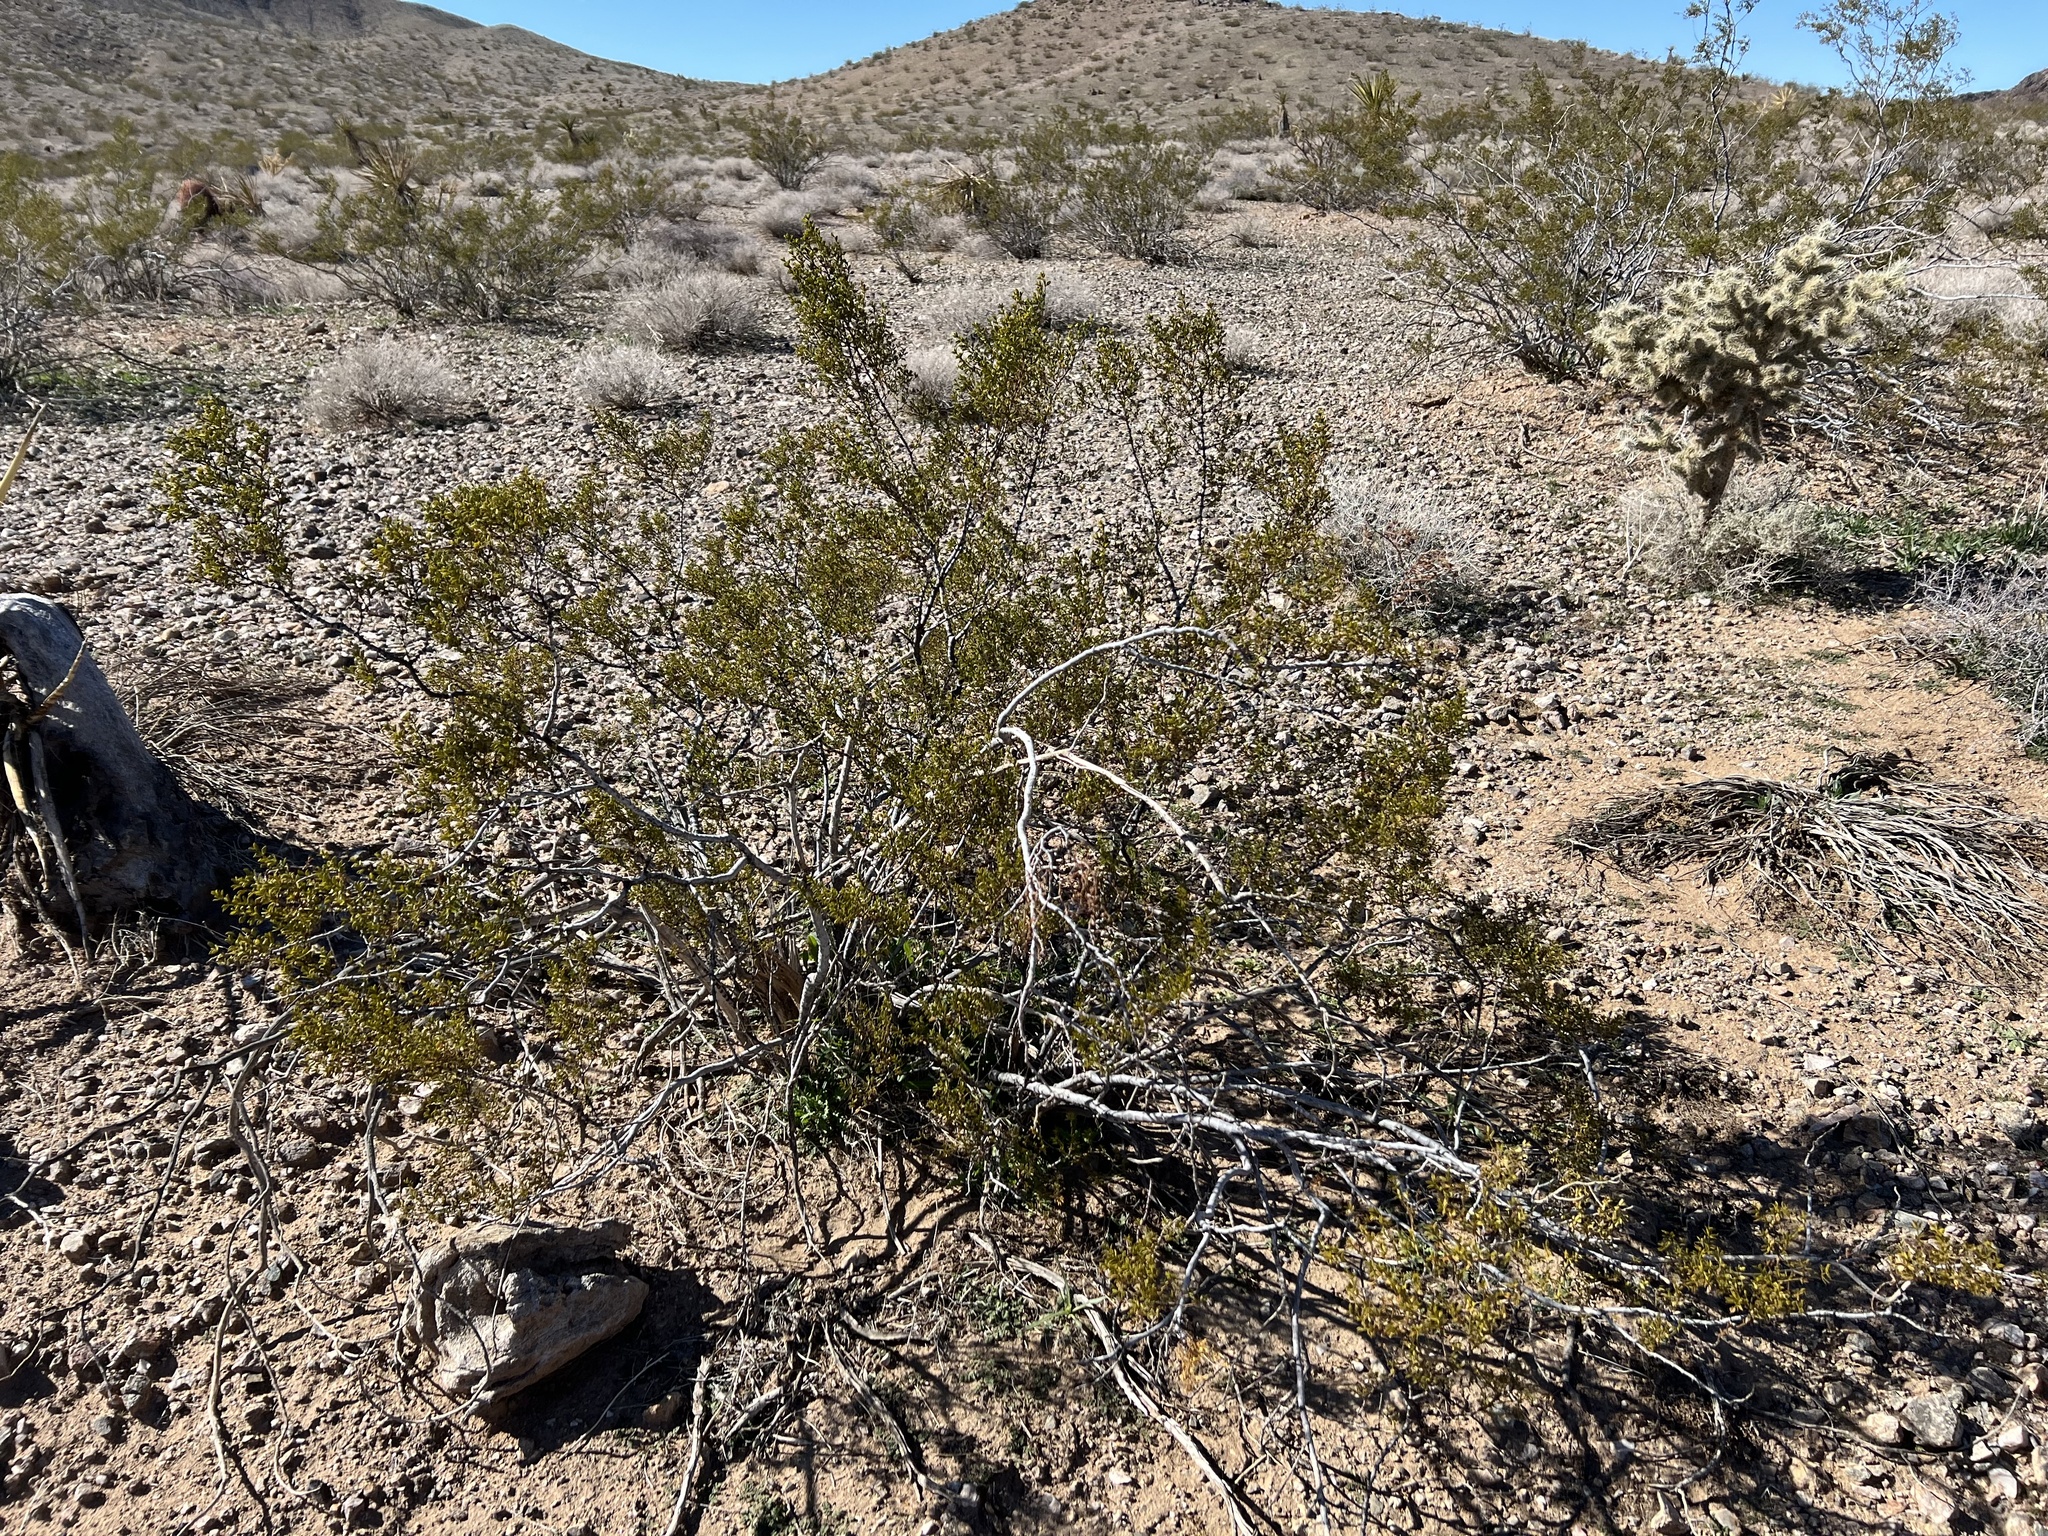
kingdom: Plantae
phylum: Tracheophyta
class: Magnoliopsida
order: Zygophyllales
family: Zygophyllaceae
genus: Larrea
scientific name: Larrea tridentata
